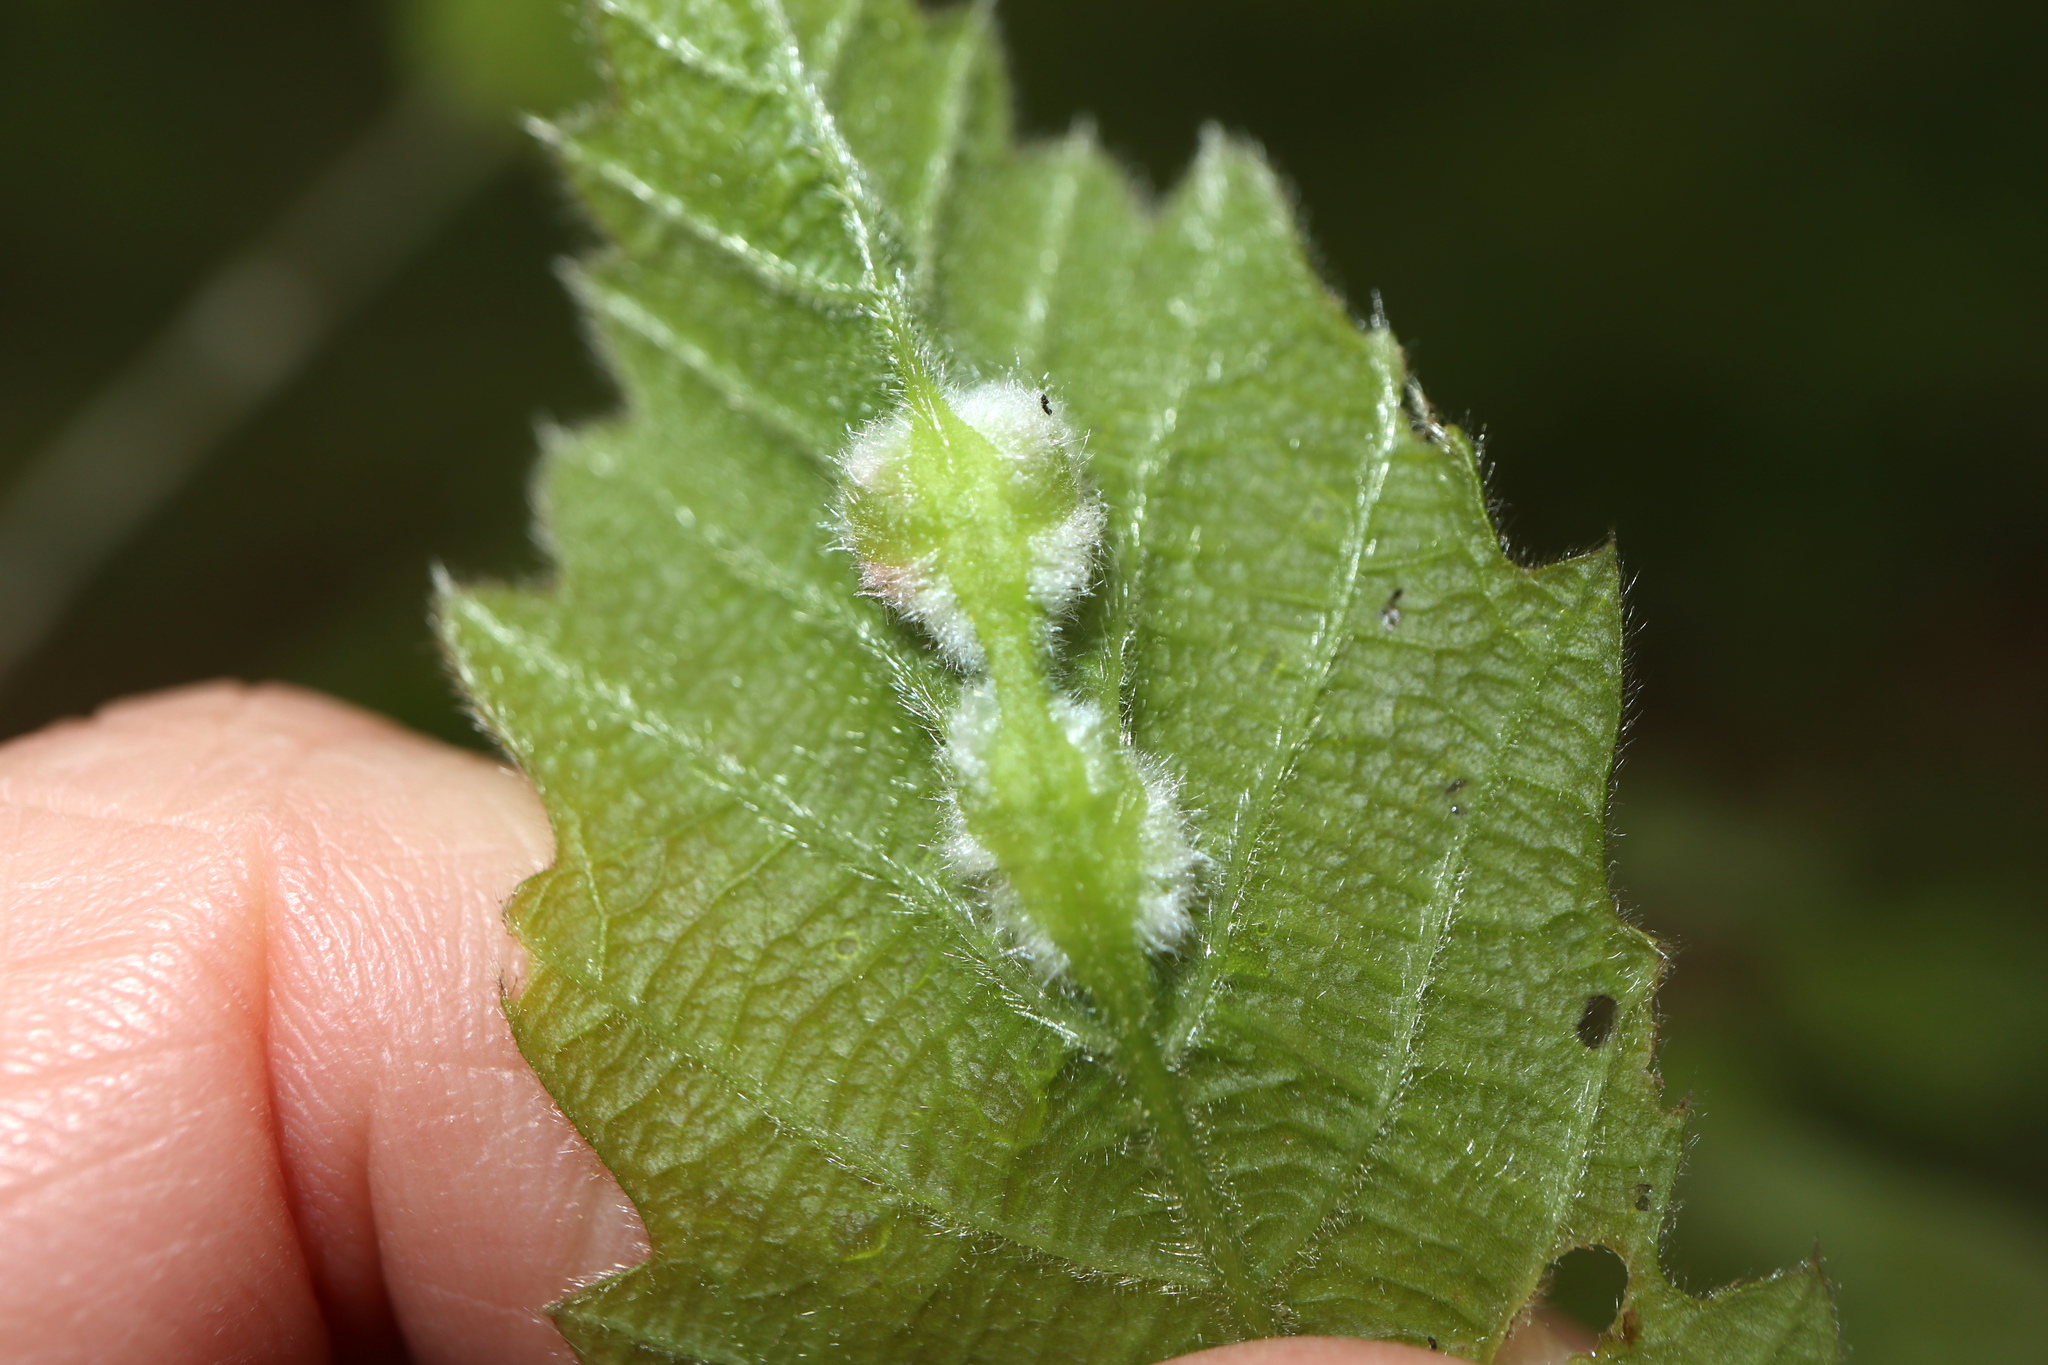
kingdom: Animalia
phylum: Arthropoda
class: Insecta
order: Diptera
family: Cecidomyiidae
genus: Macrodiplosis
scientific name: Macrodiplosis niveipila
